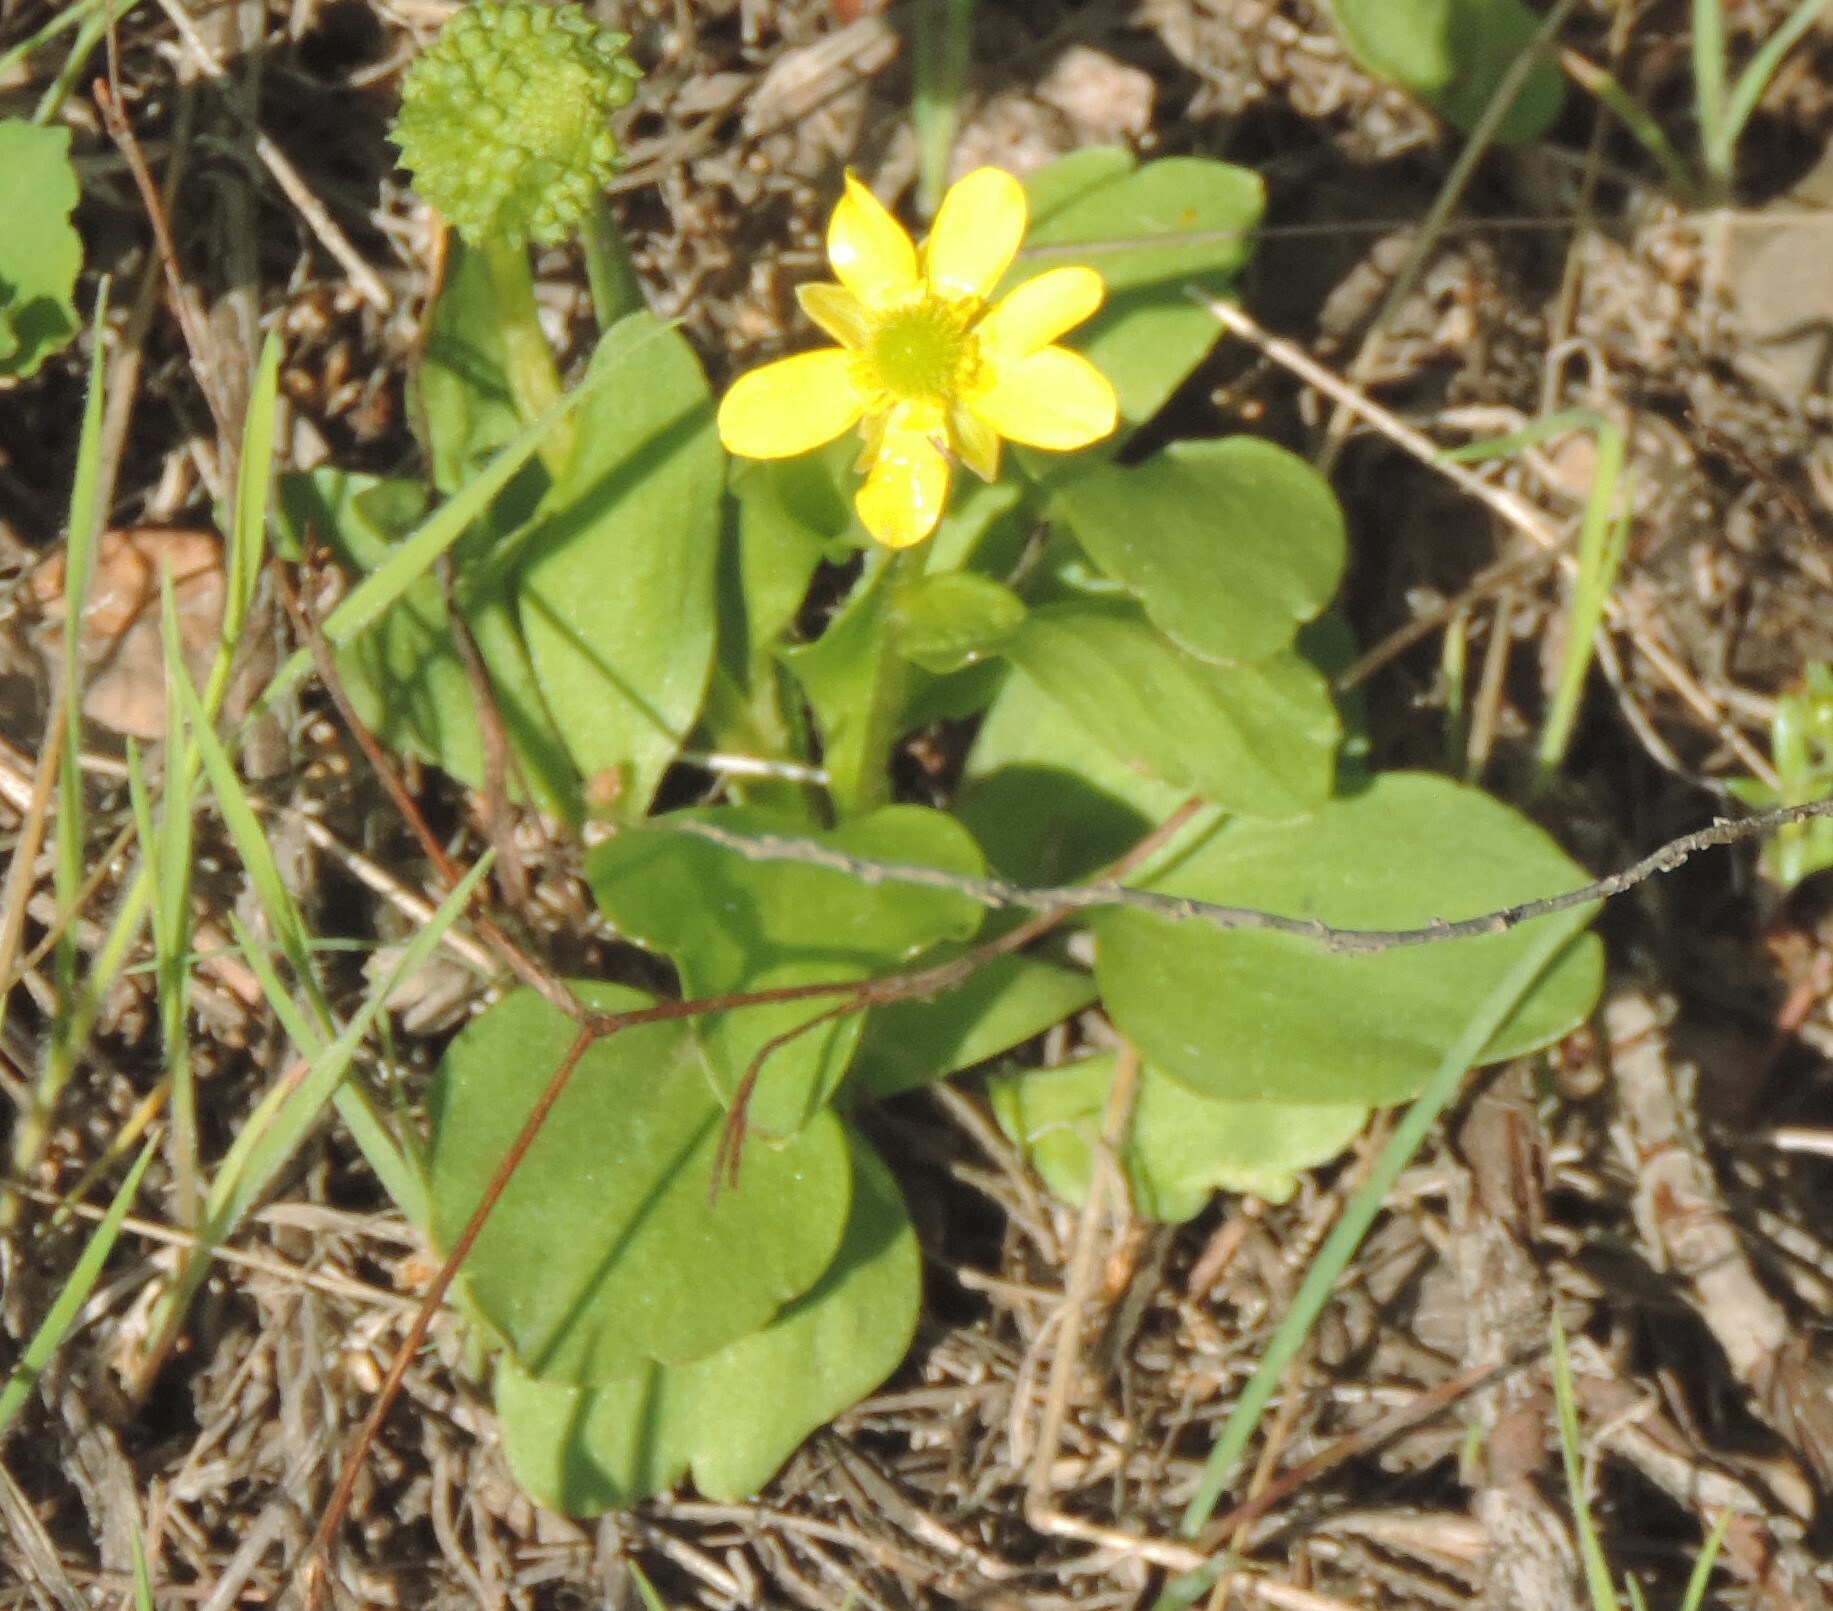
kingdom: Plantae
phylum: Tracheophyta
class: Magnoliopsida
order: Ranunculales
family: Ranunculaceae
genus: Ranunculus
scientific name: Ranunculus glaberrimus
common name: Sagebrush buttercup
